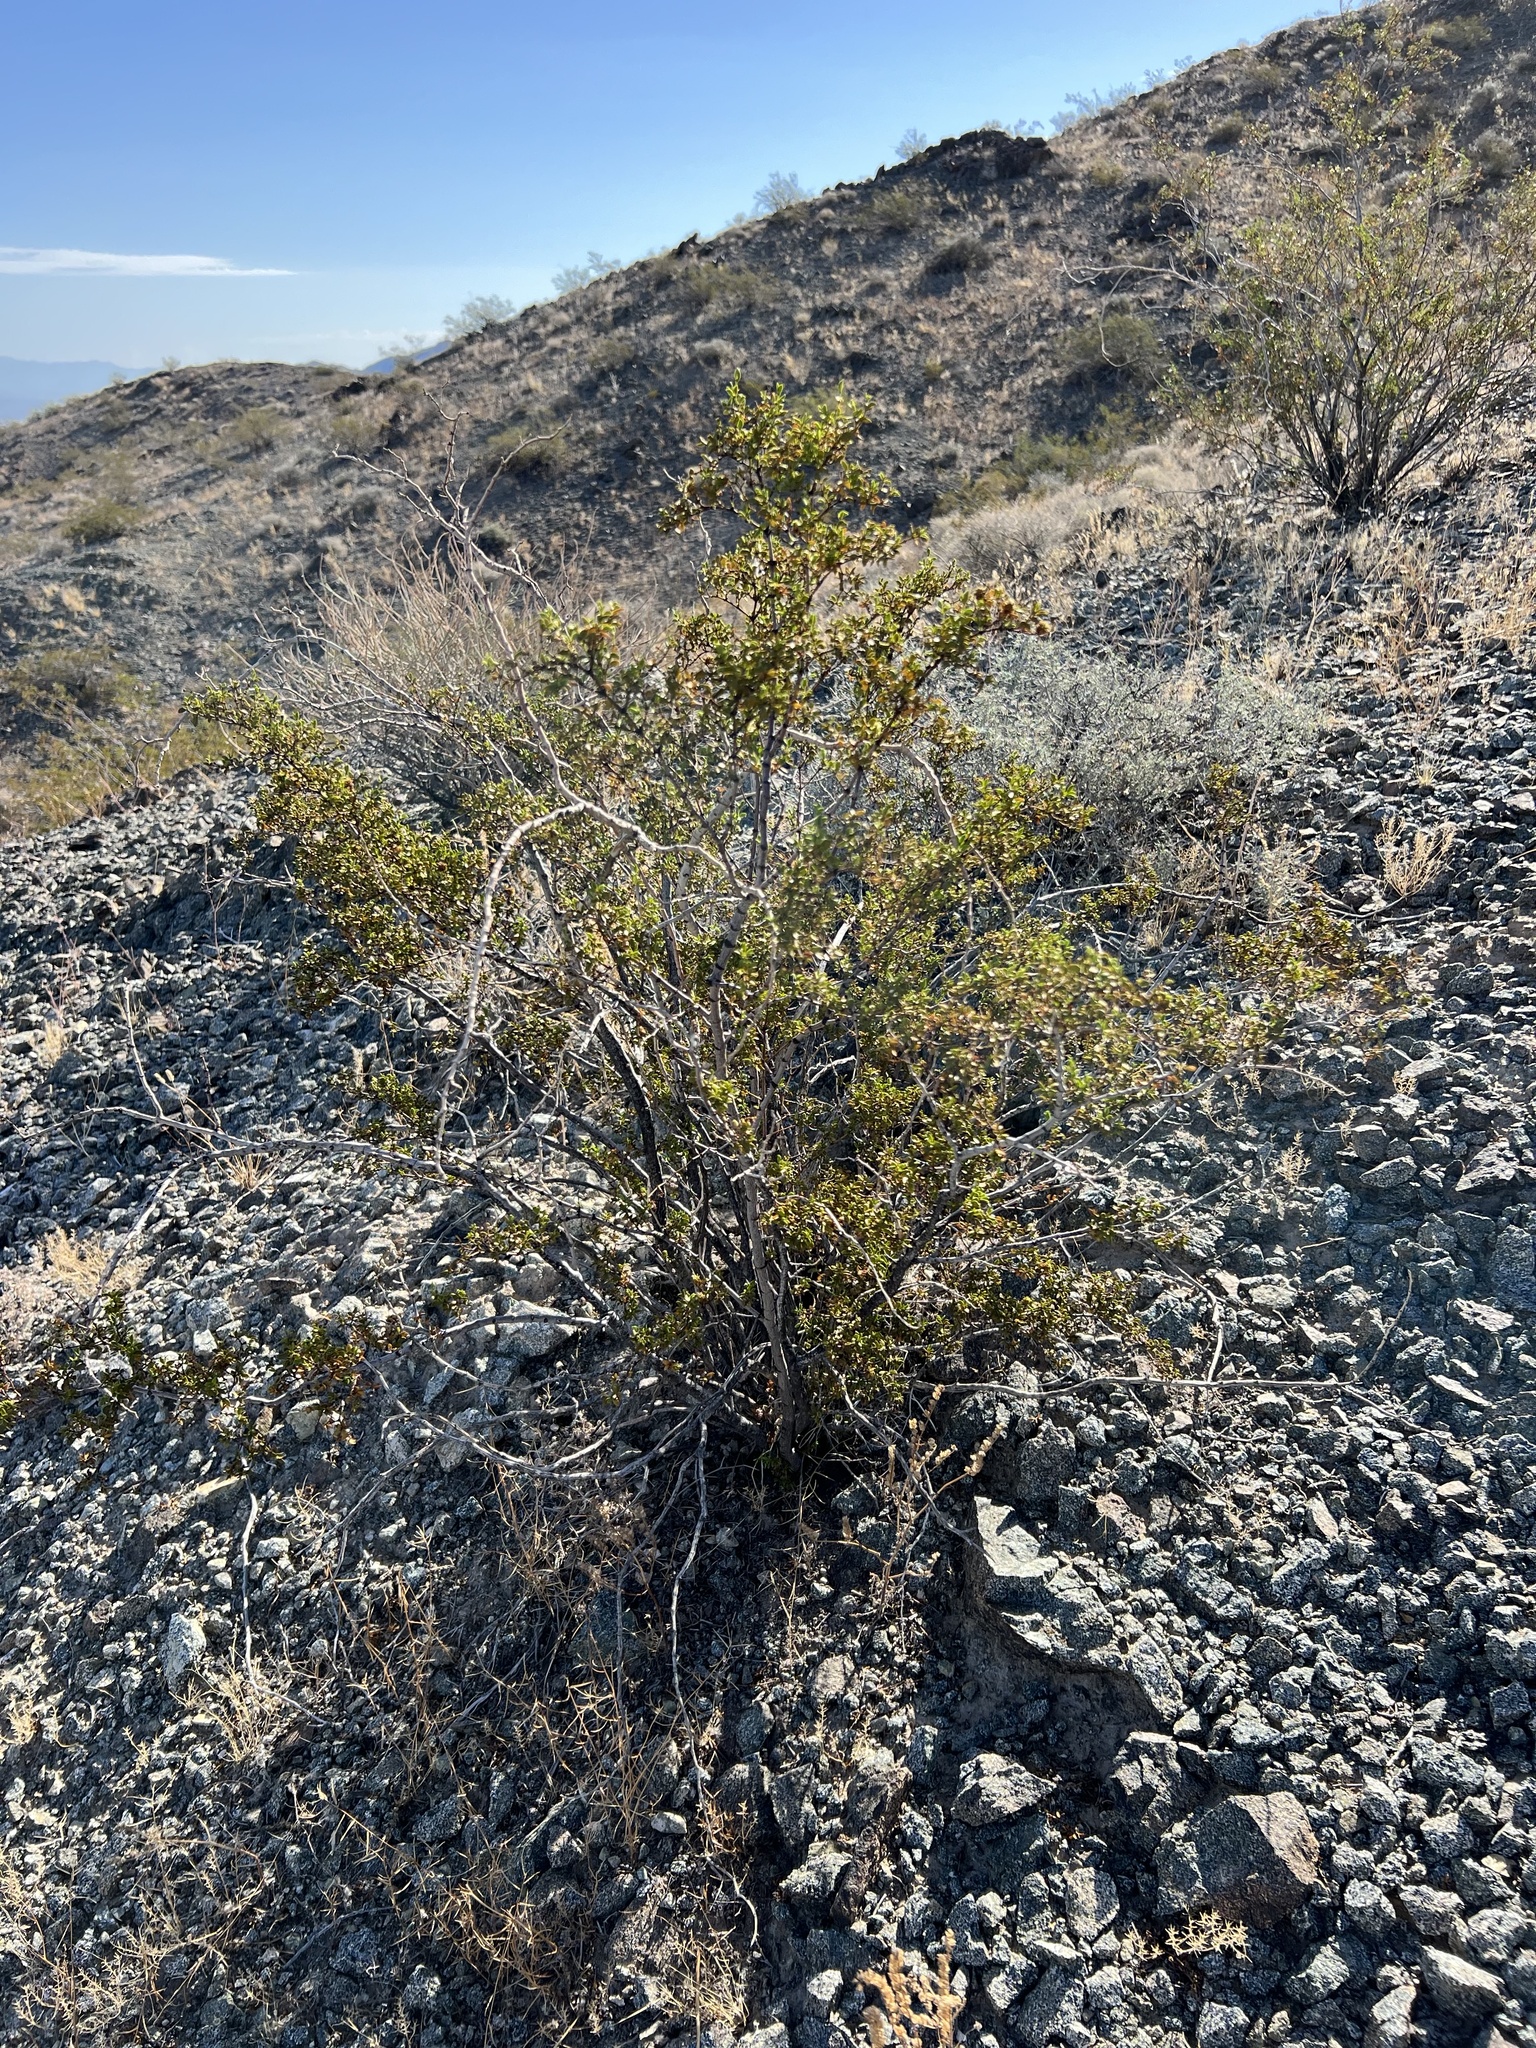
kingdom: Plantae
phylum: Tracheophyta
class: Magnoliopsida
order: Zygophyllales
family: Zygophyllaceae
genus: Larrea
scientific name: Larrea tridentata
